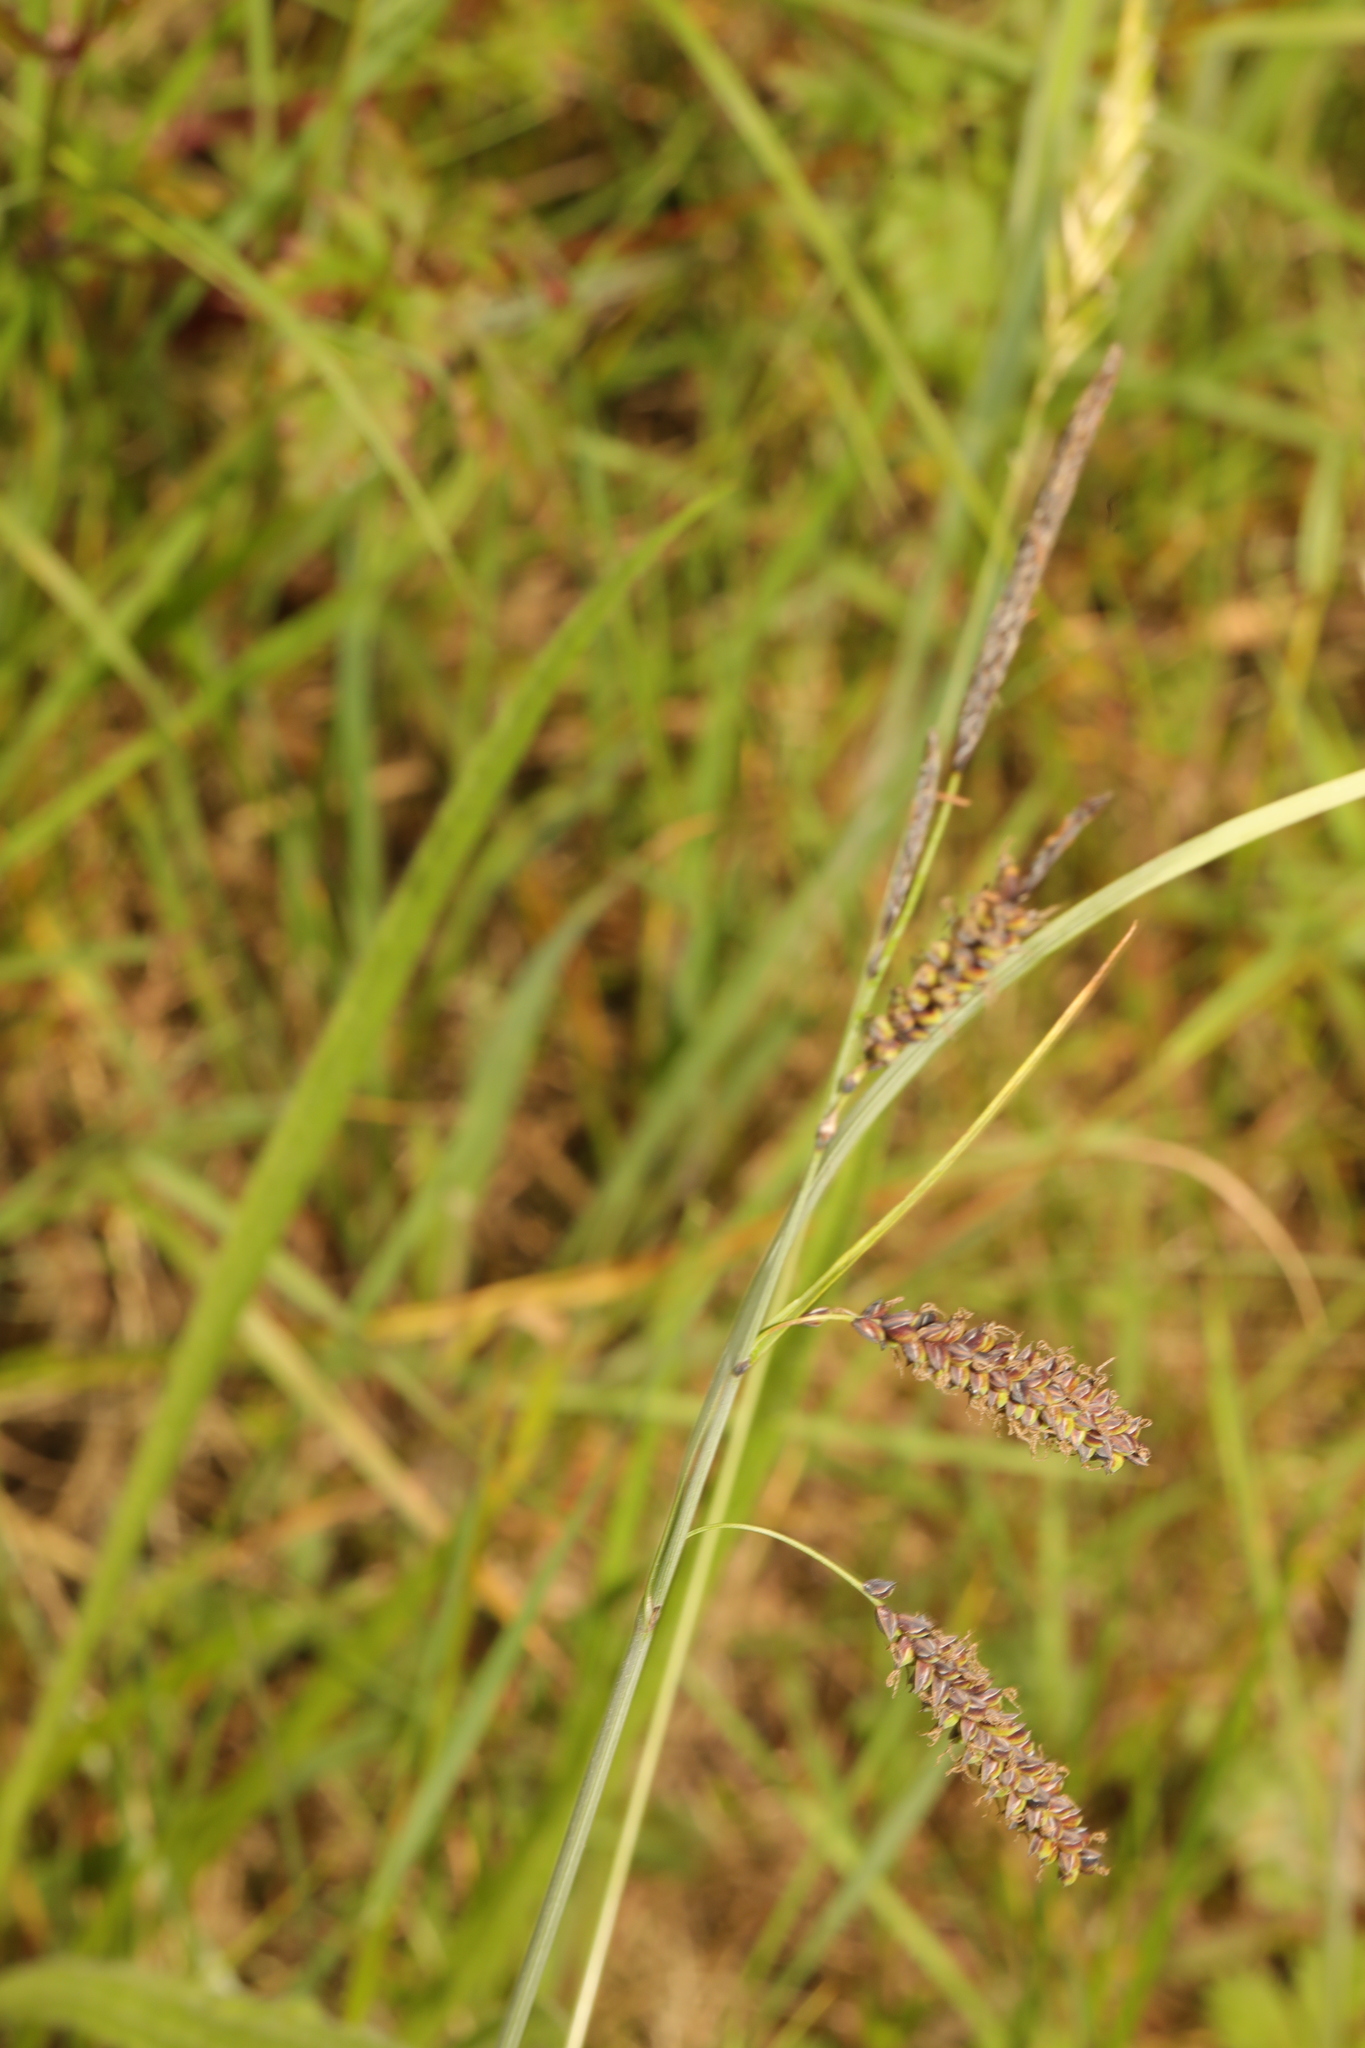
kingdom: Plantae
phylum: Tracheophyta
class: Liliopsida
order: Poales
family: Cyperaceae
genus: Carex
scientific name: Carex flacca
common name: Glaucous sedge
